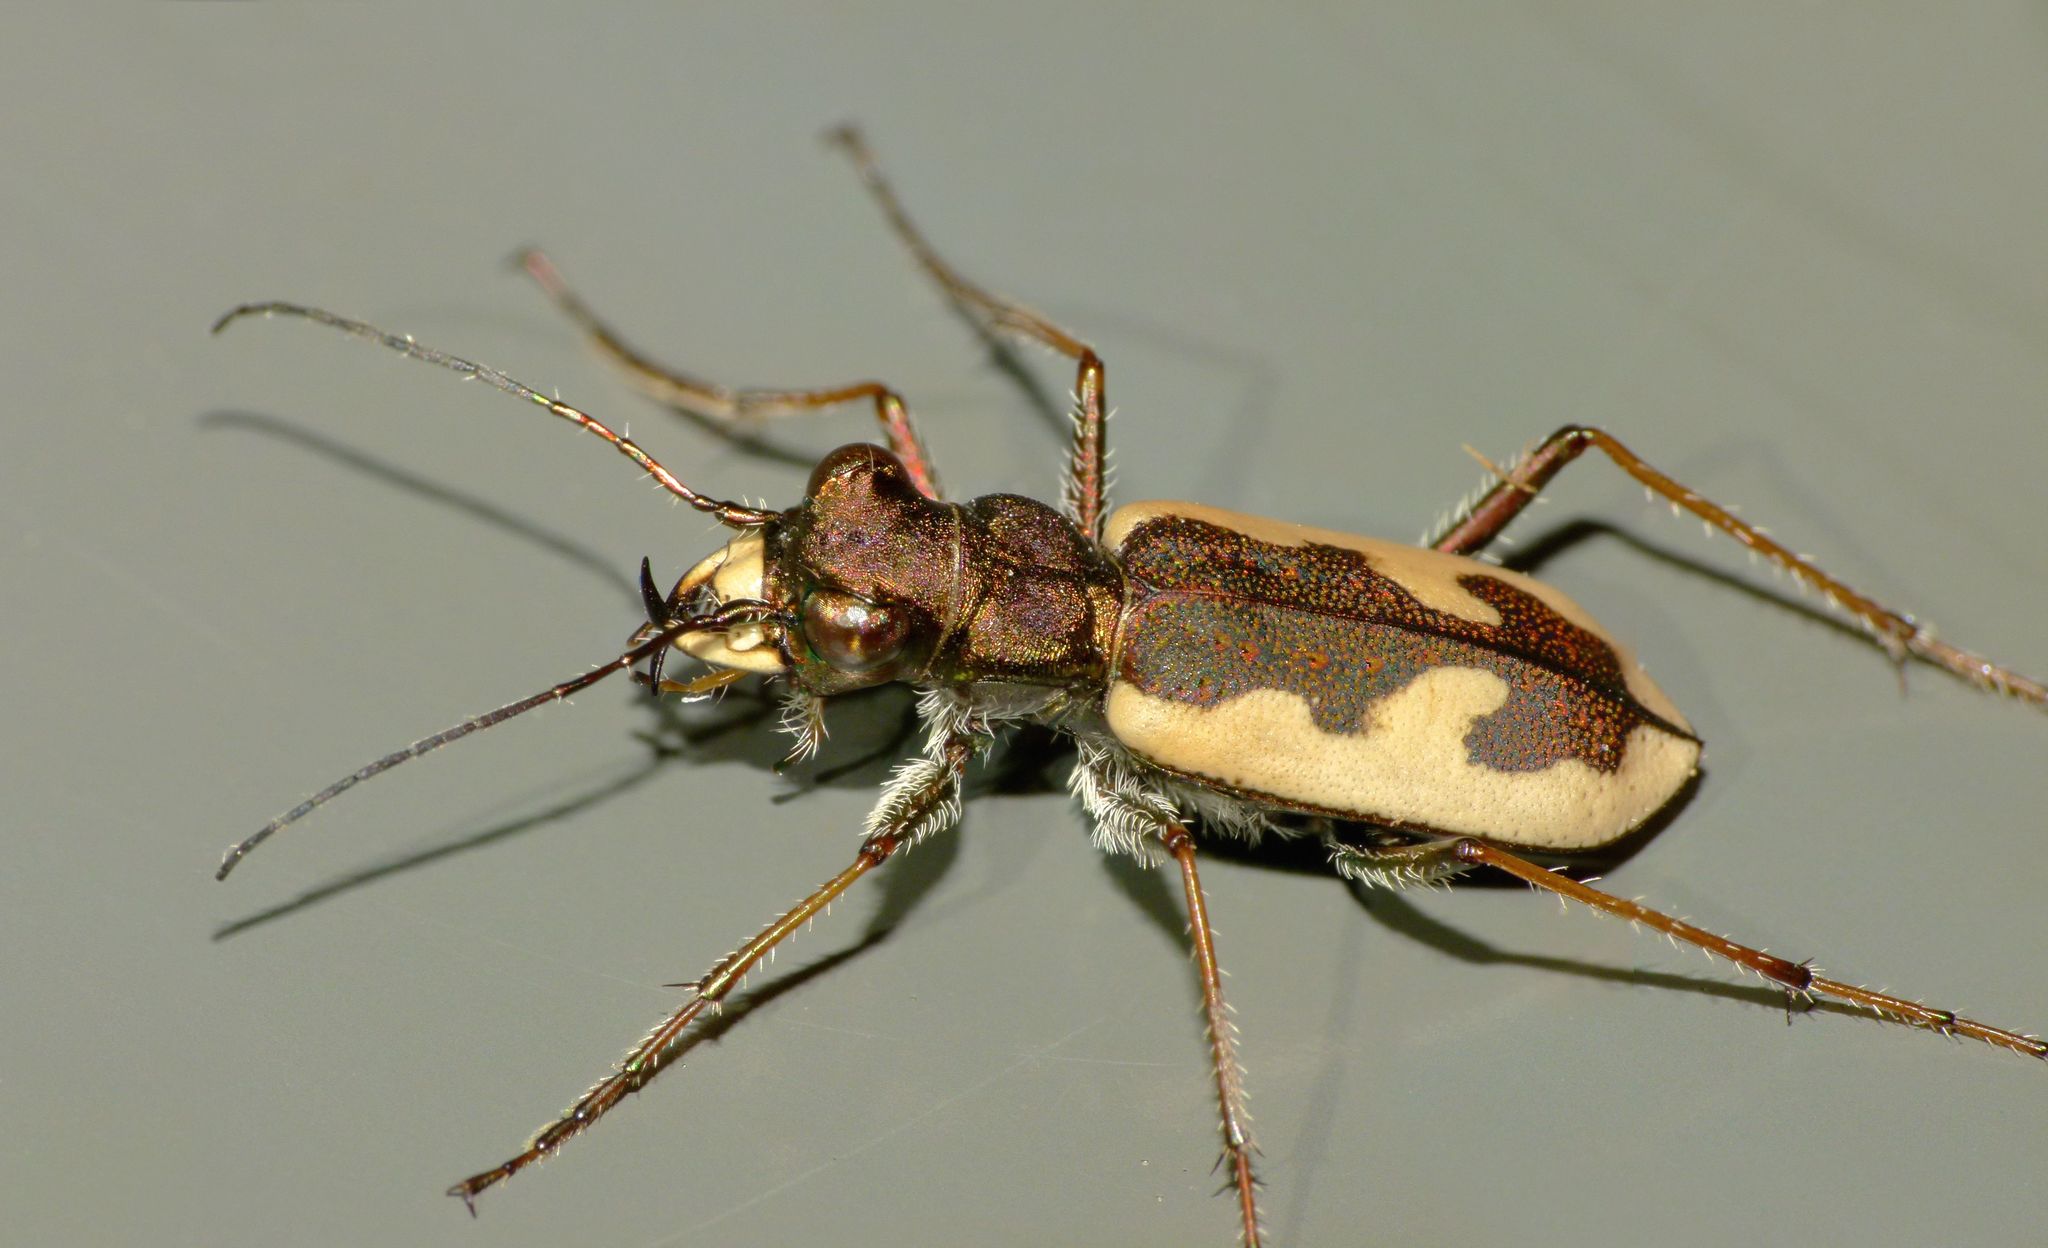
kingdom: Animalia
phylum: Arthropoda
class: Insecta
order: Coleoptera
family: Carabidae
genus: Neocicindela
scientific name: Neocicindela latecincta
